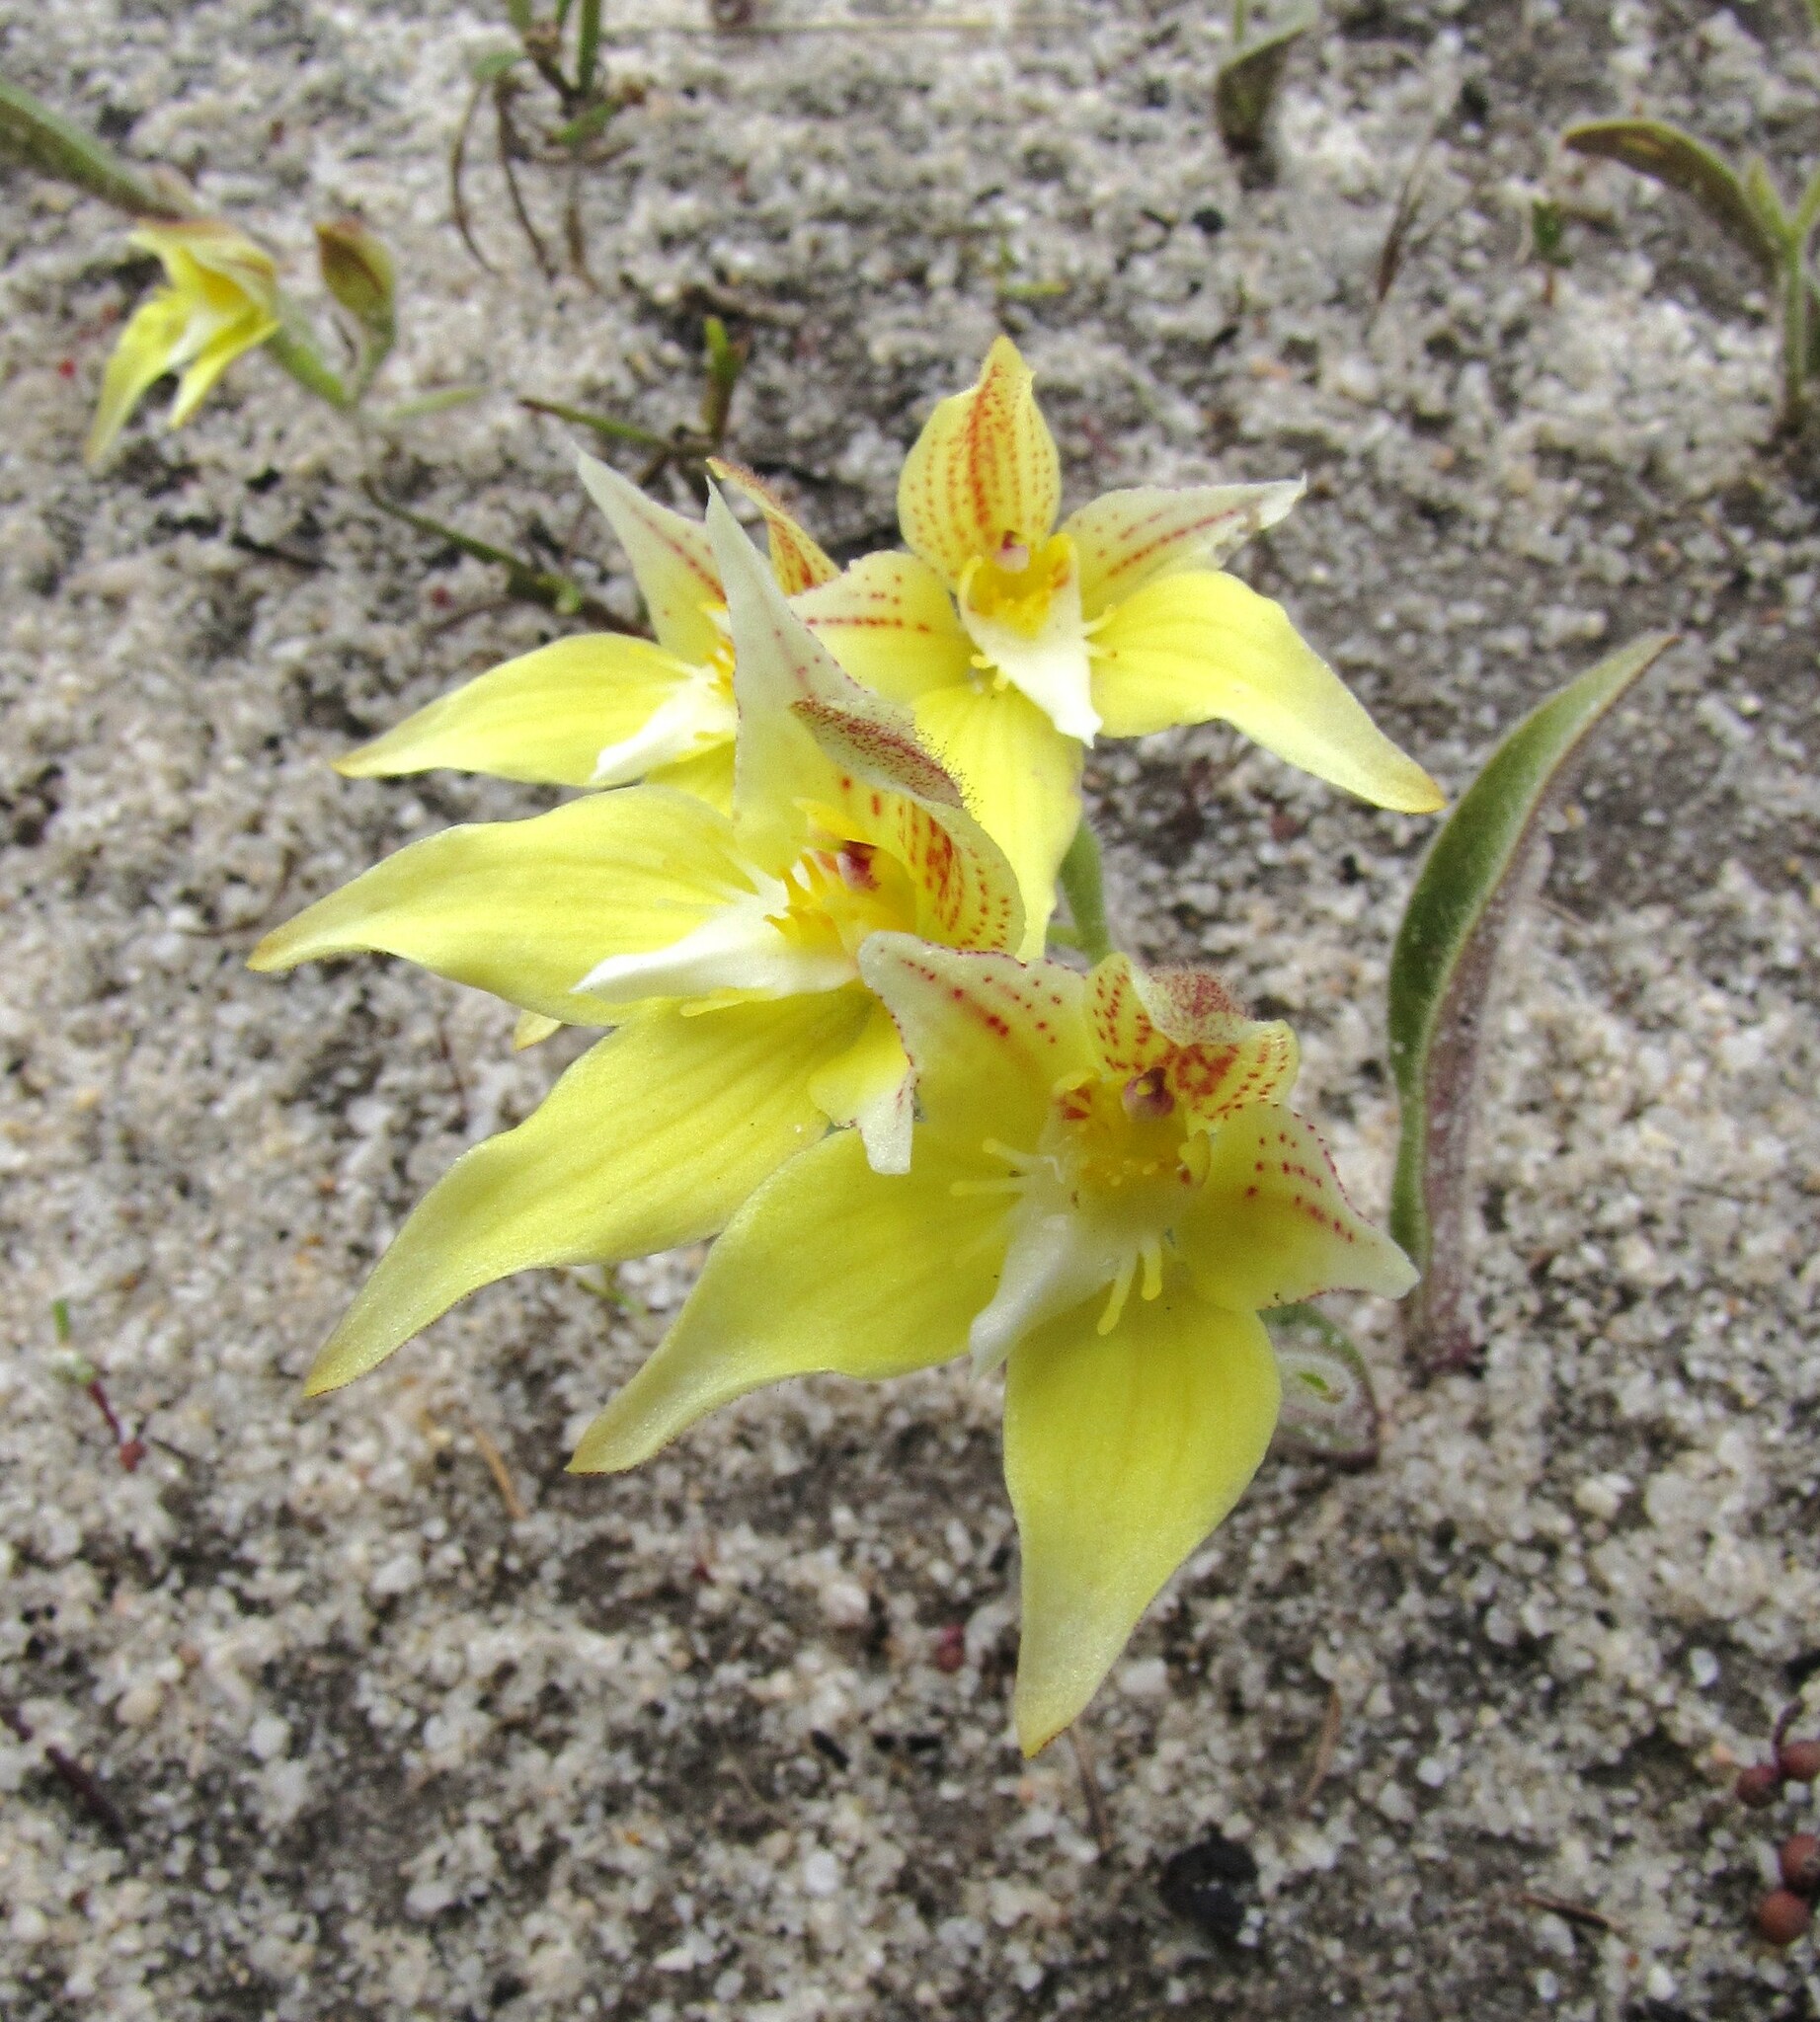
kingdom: Plantae
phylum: Tracheophyta
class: Liliopsida
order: Asparagales
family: Orchidaceae
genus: Caladenia
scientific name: Caladenia flava
